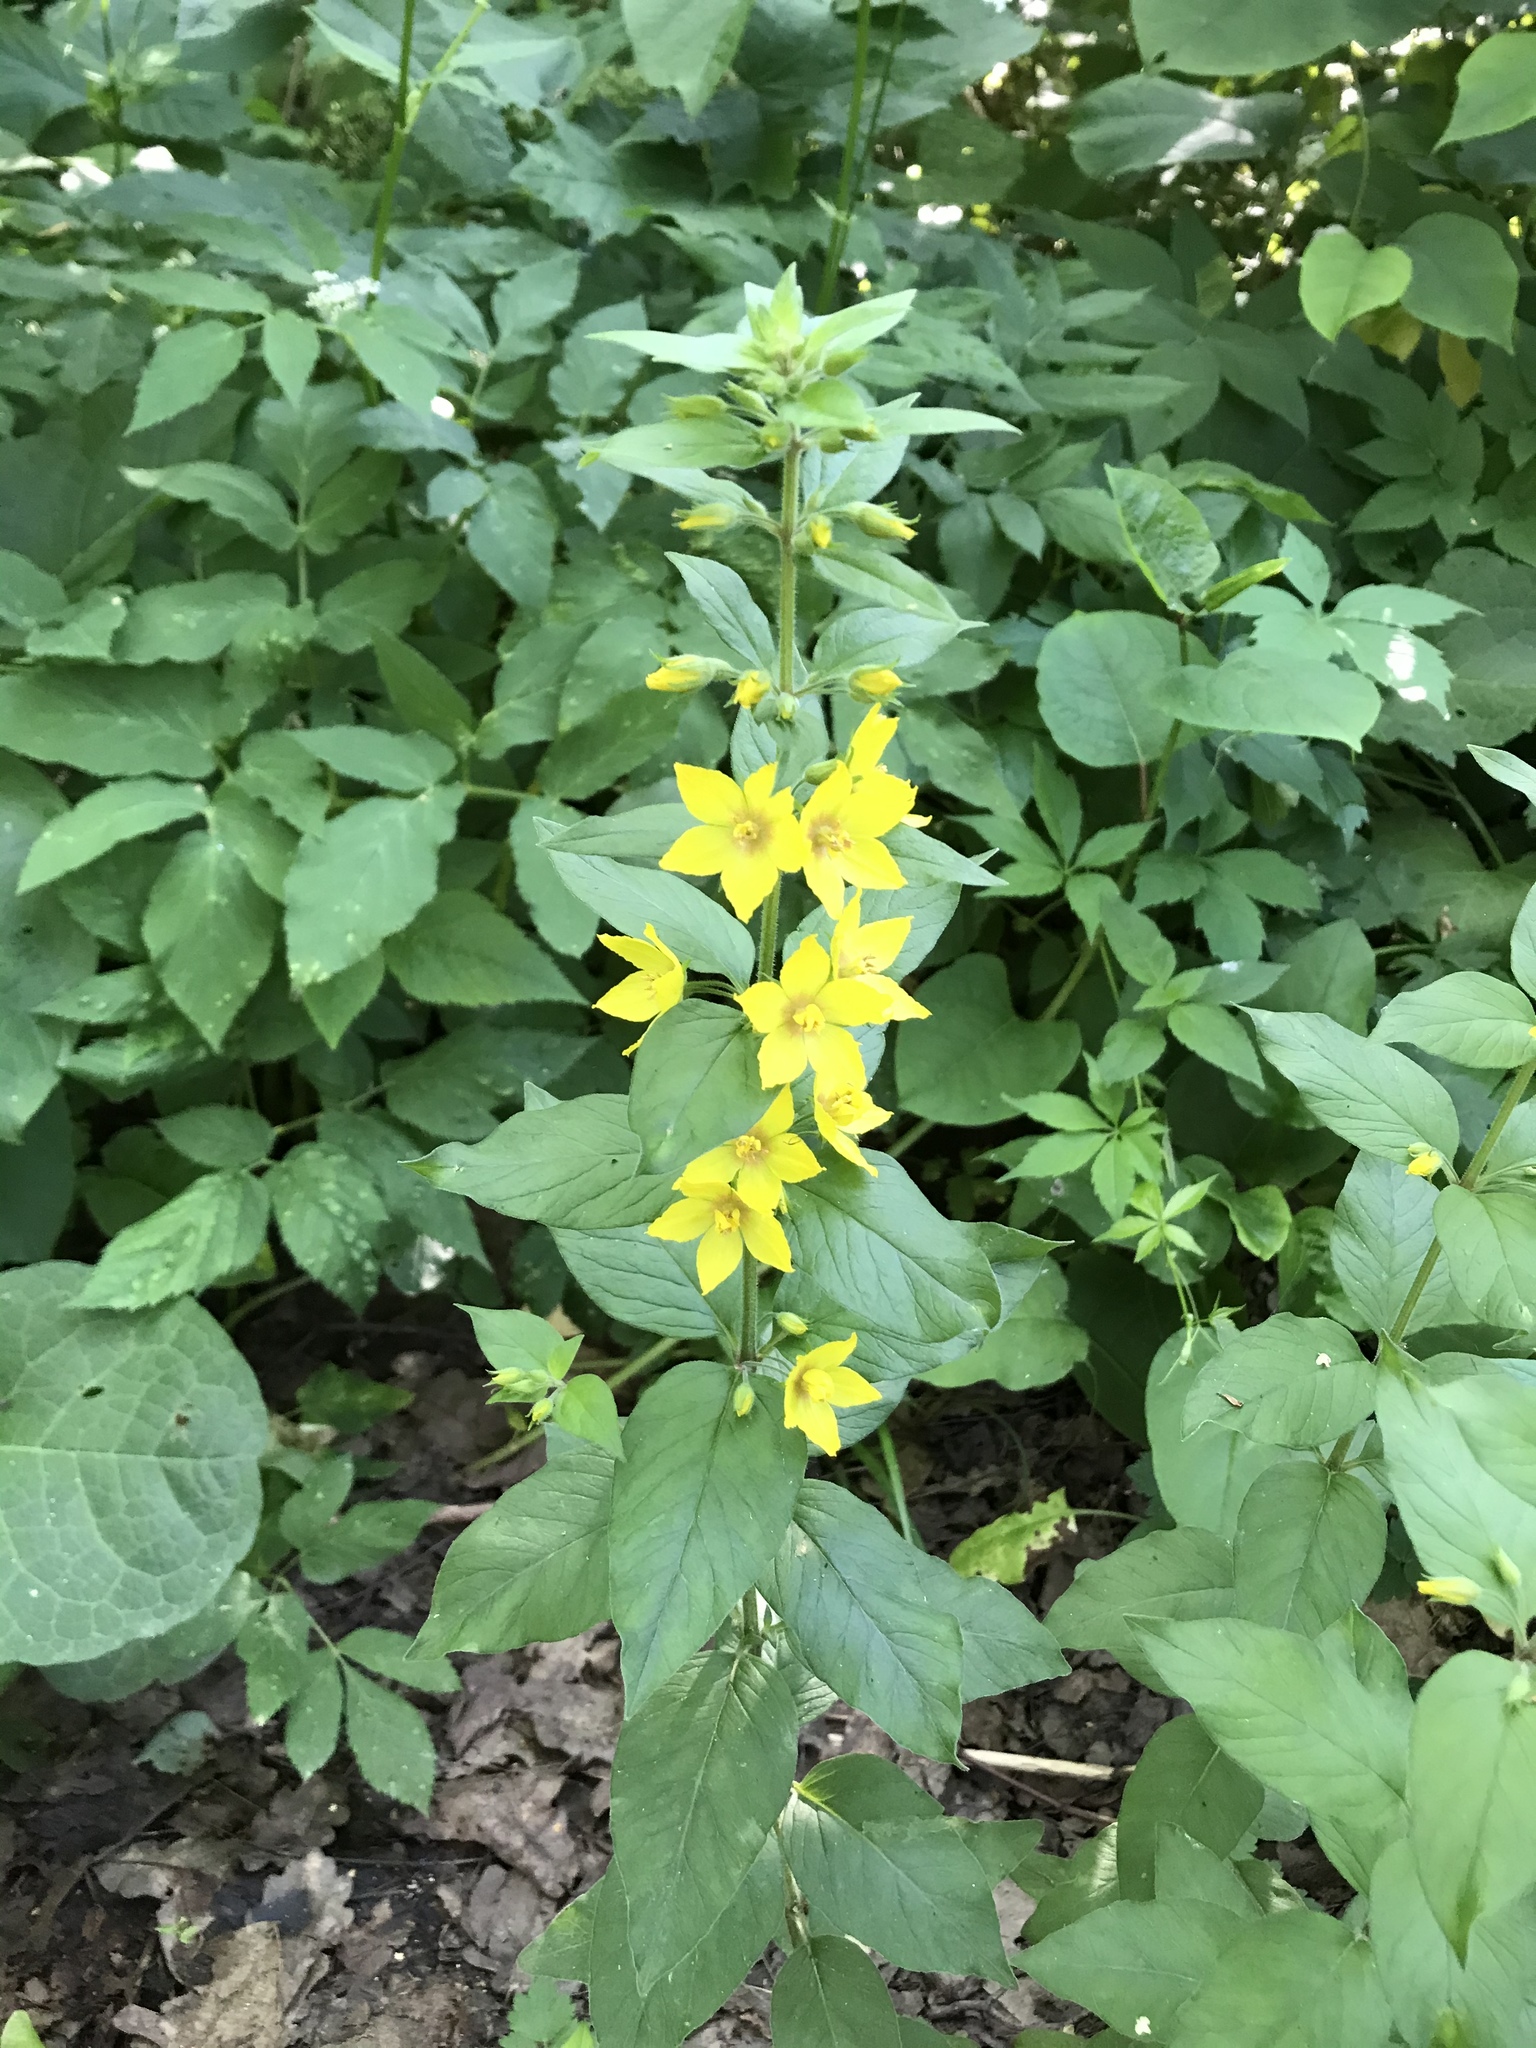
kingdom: Plantae
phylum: Tracheophyta
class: Magnoliopsida
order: Ericales
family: Primulaceae
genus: Lysimachia
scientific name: Lysimachia punctata
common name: Dotted loosestrife
